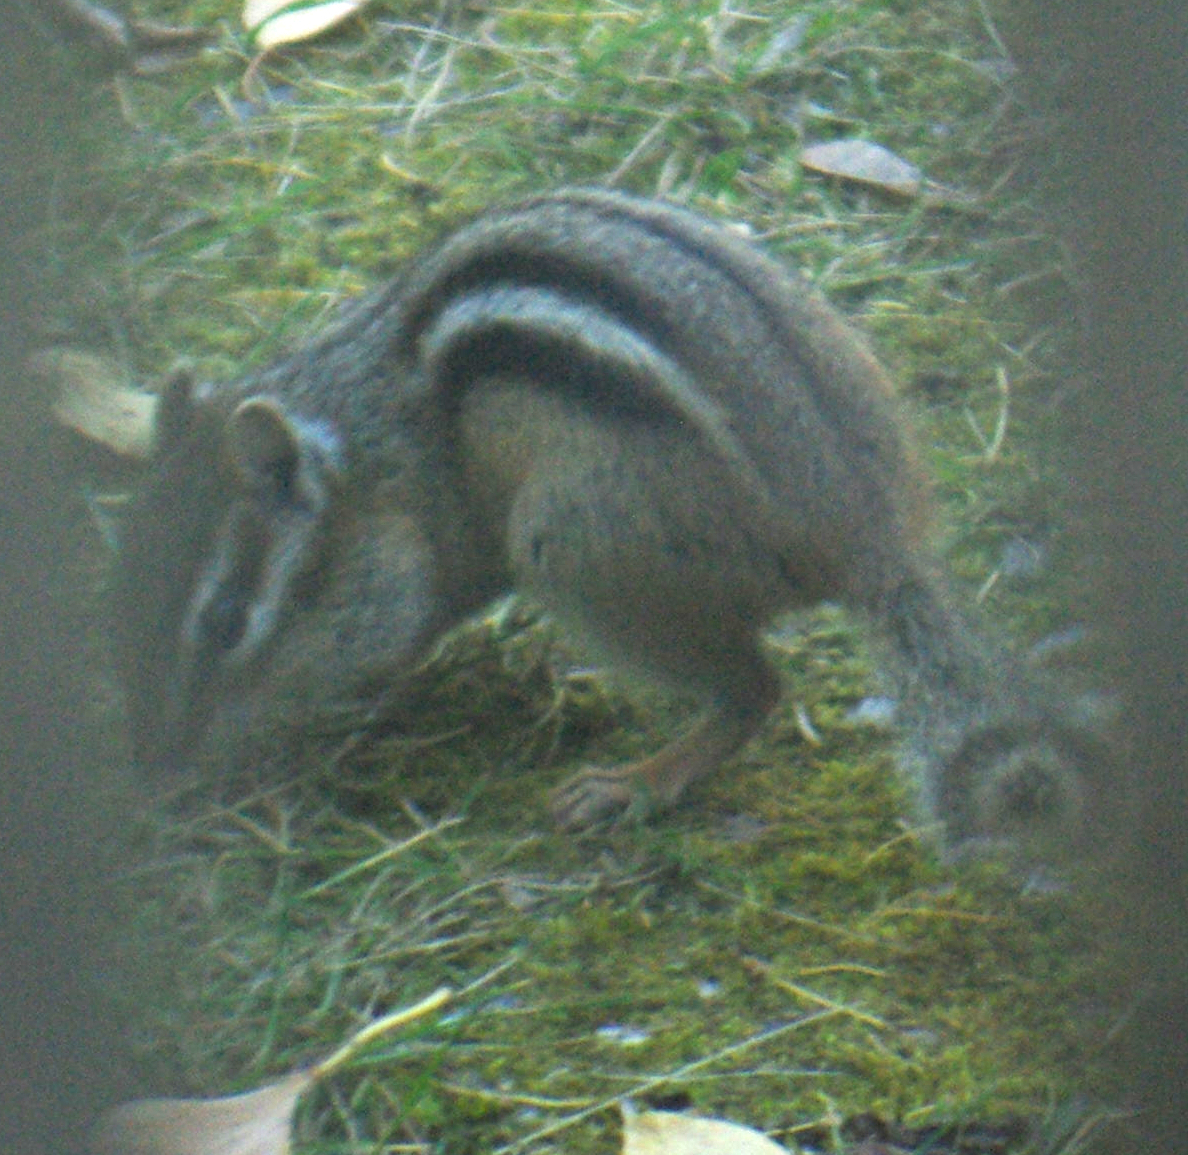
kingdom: Animalia
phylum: Chordata
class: Mammalia
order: Rodentia
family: Sciuridae
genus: Tamias
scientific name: Tamias striatus
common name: Eastern chipmunk
